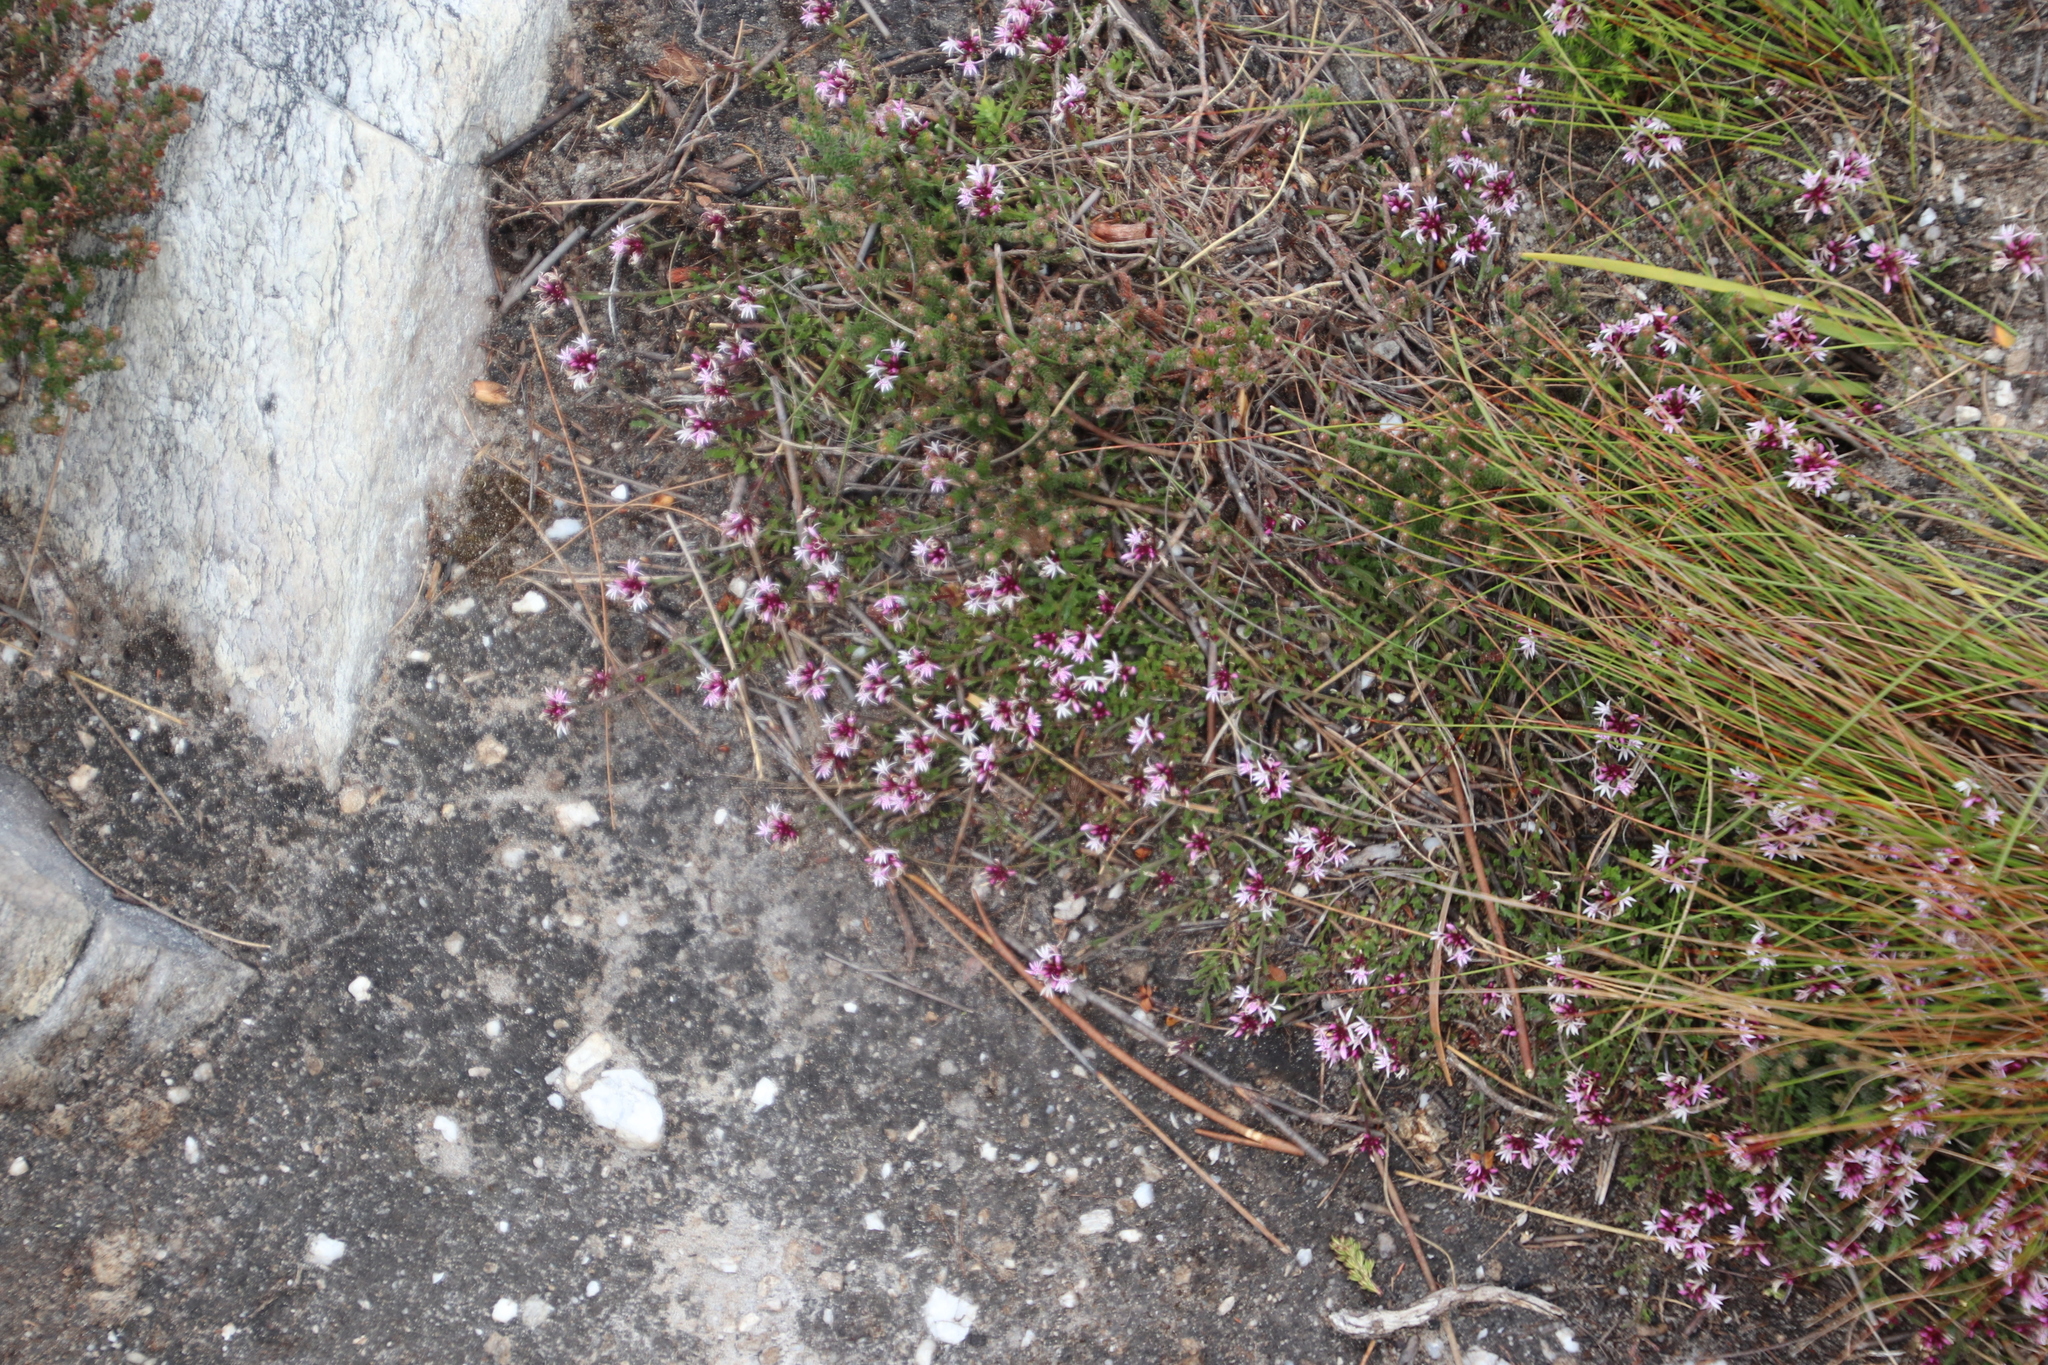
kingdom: Plantae
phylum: Tracheophyta
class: Magnoliopsida
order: Asterales
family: Campanulaceae
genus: Lobelia
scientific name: Lobelia jasionoides
